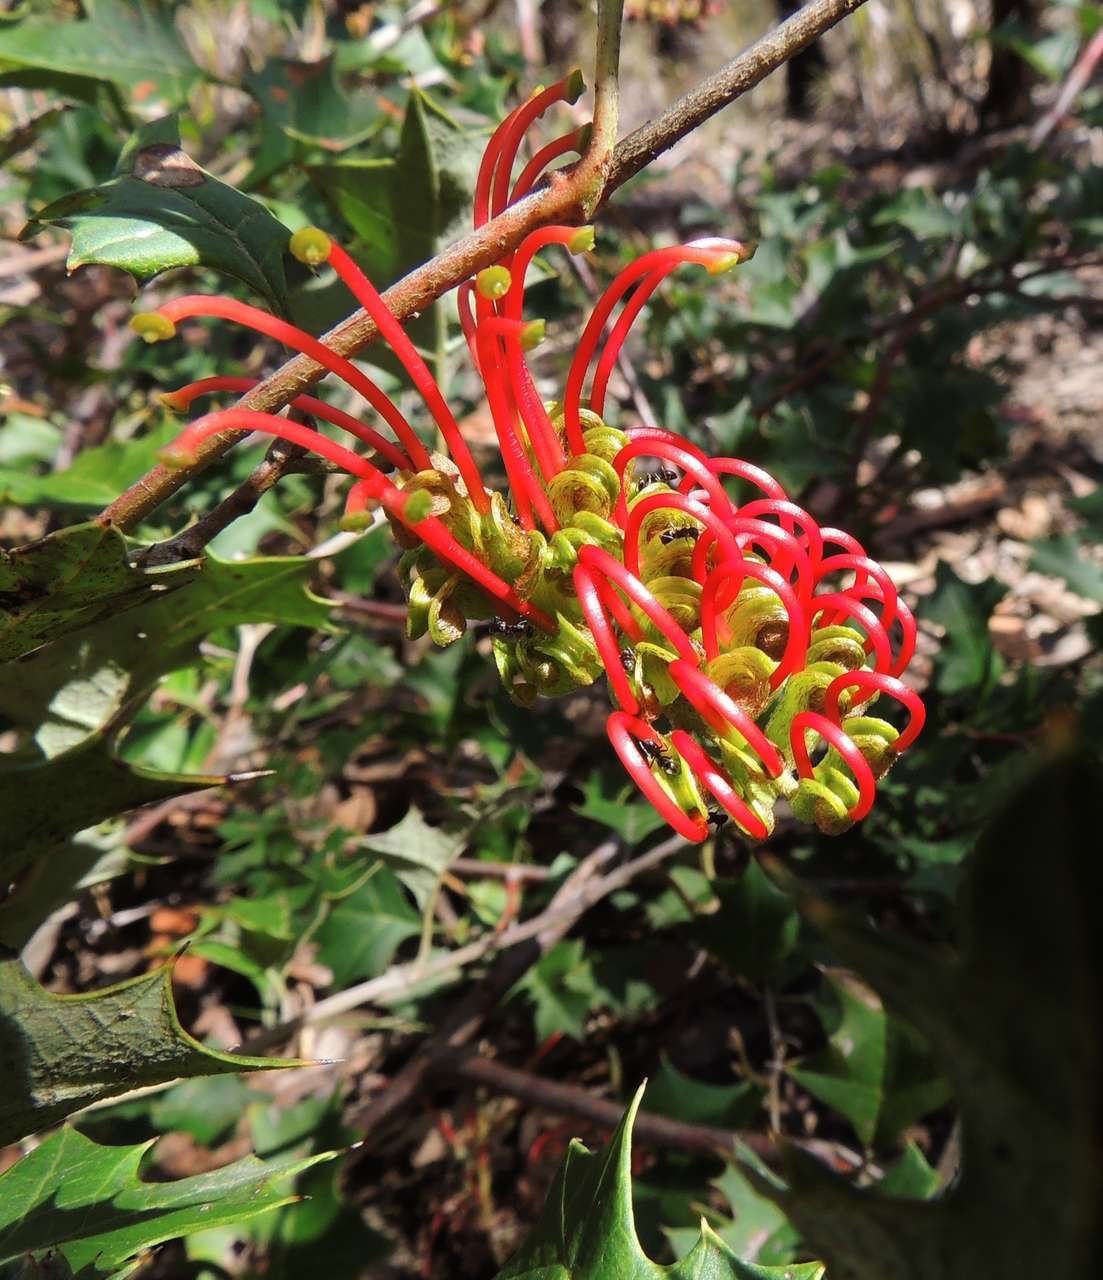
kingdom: Plantae
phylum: Tracheophyta
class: Magnoliopsida
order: Proteales
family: Proteaceae
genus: Grevillea
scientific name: Grevillea steiglitziana
